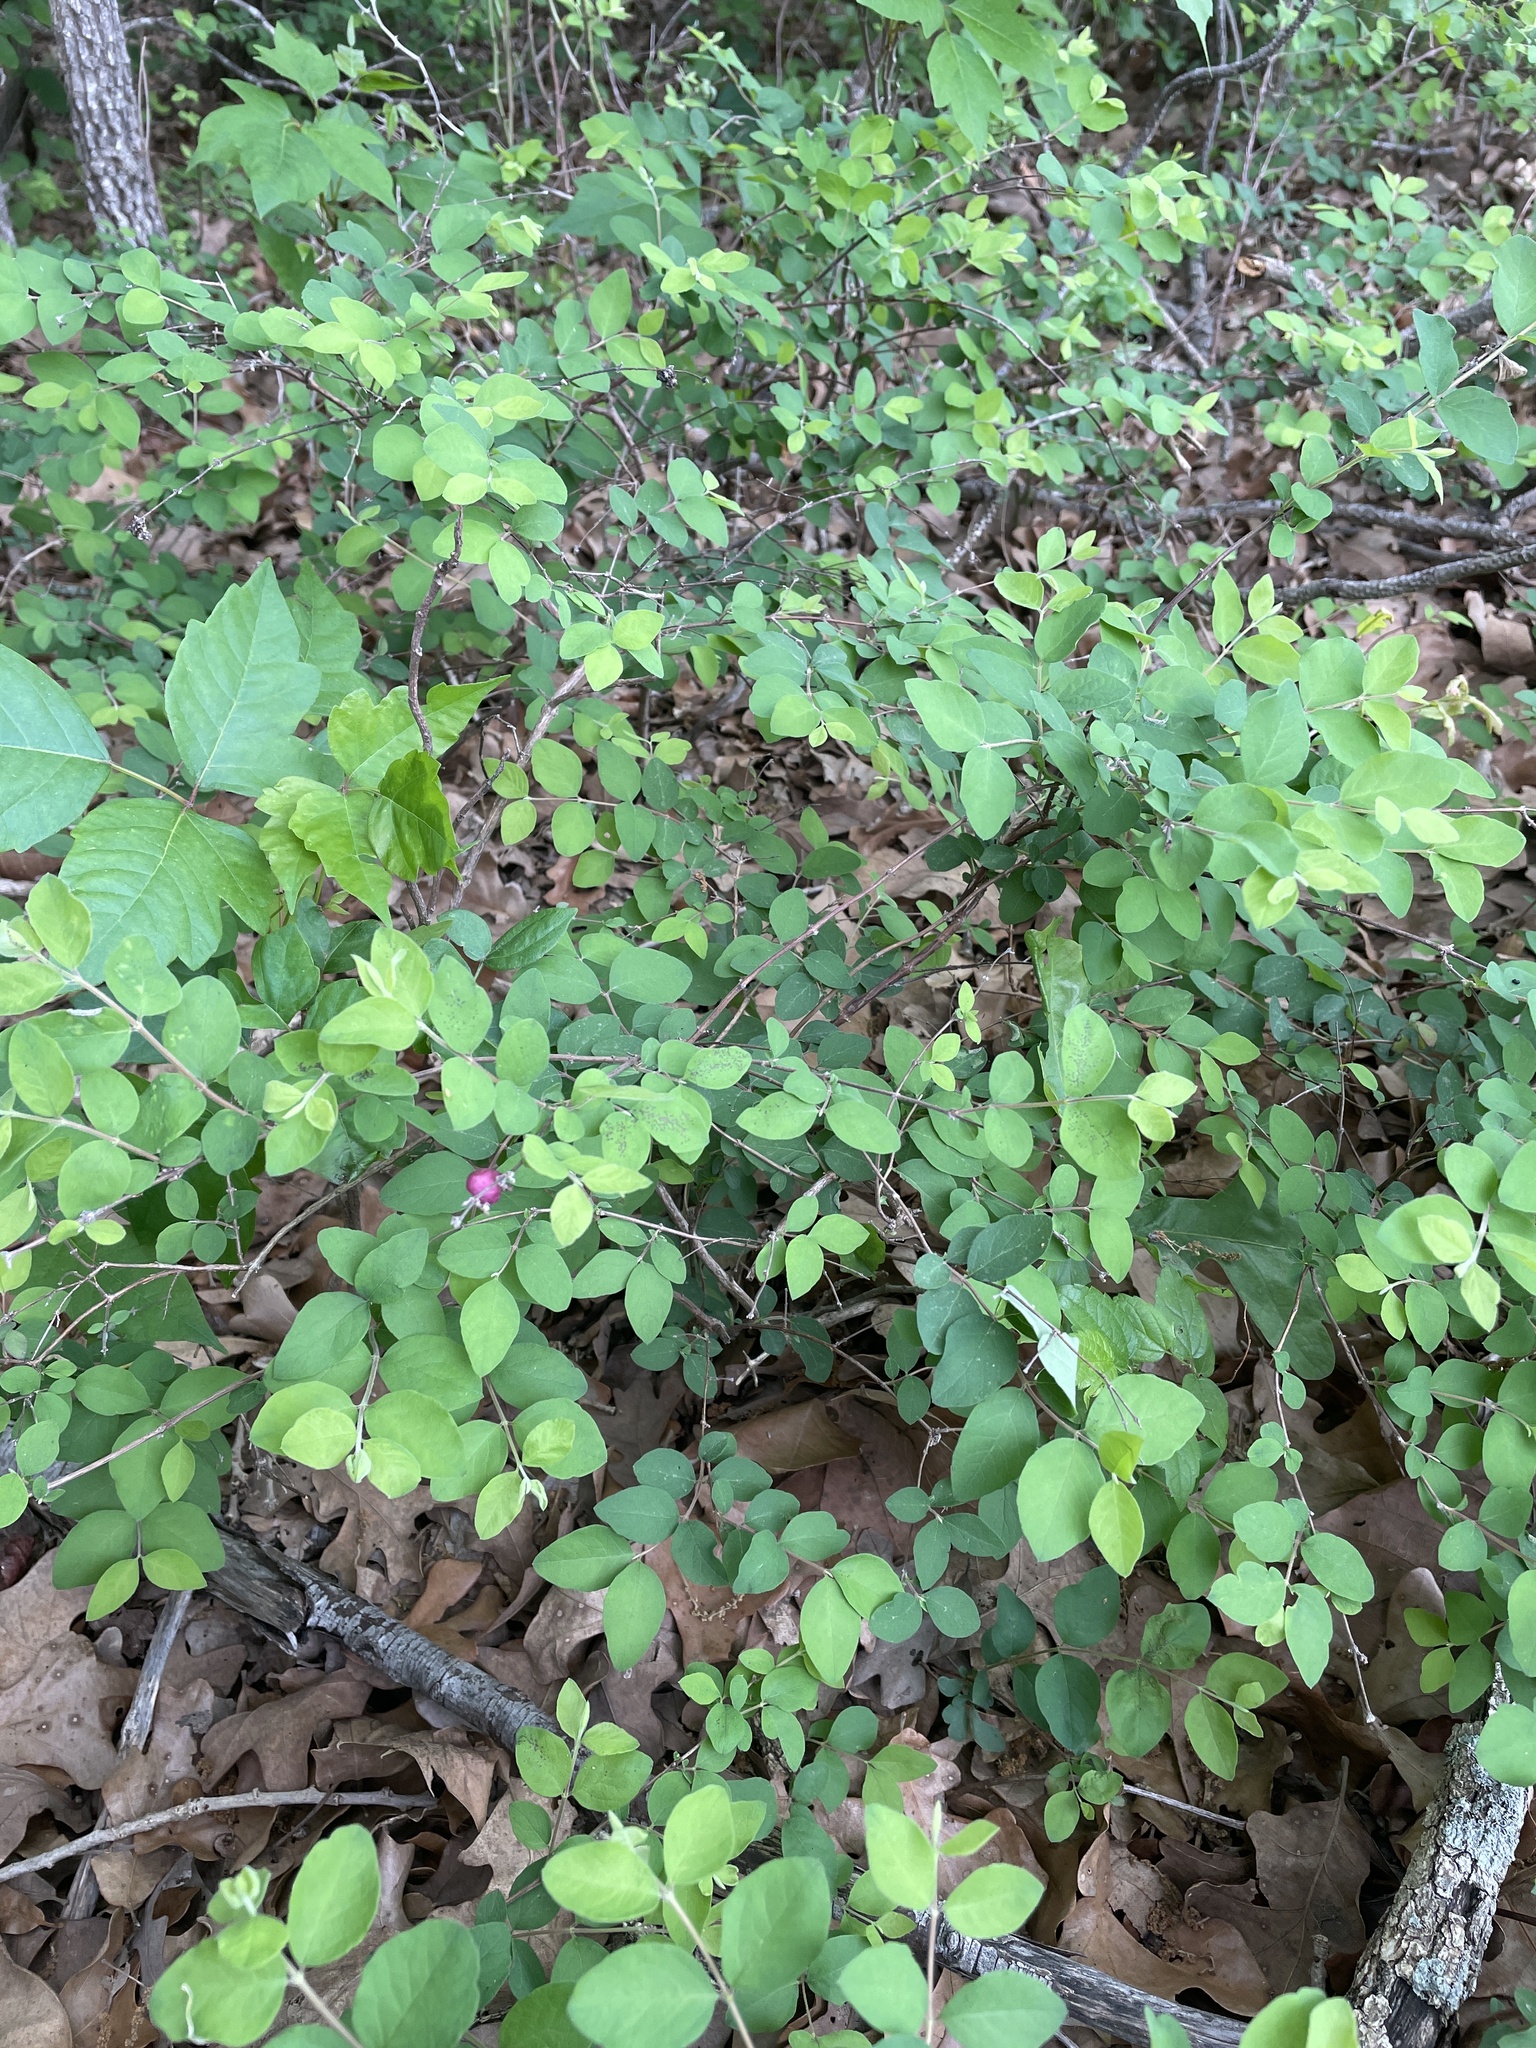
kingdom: Plantae
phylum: Tracheophyta
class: Magnoliopsida
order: Dipsacales
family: Caprifoliaceae
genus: Symphoricarpos
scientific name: Symphoricarpos orbiculatus
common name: Coralberry
